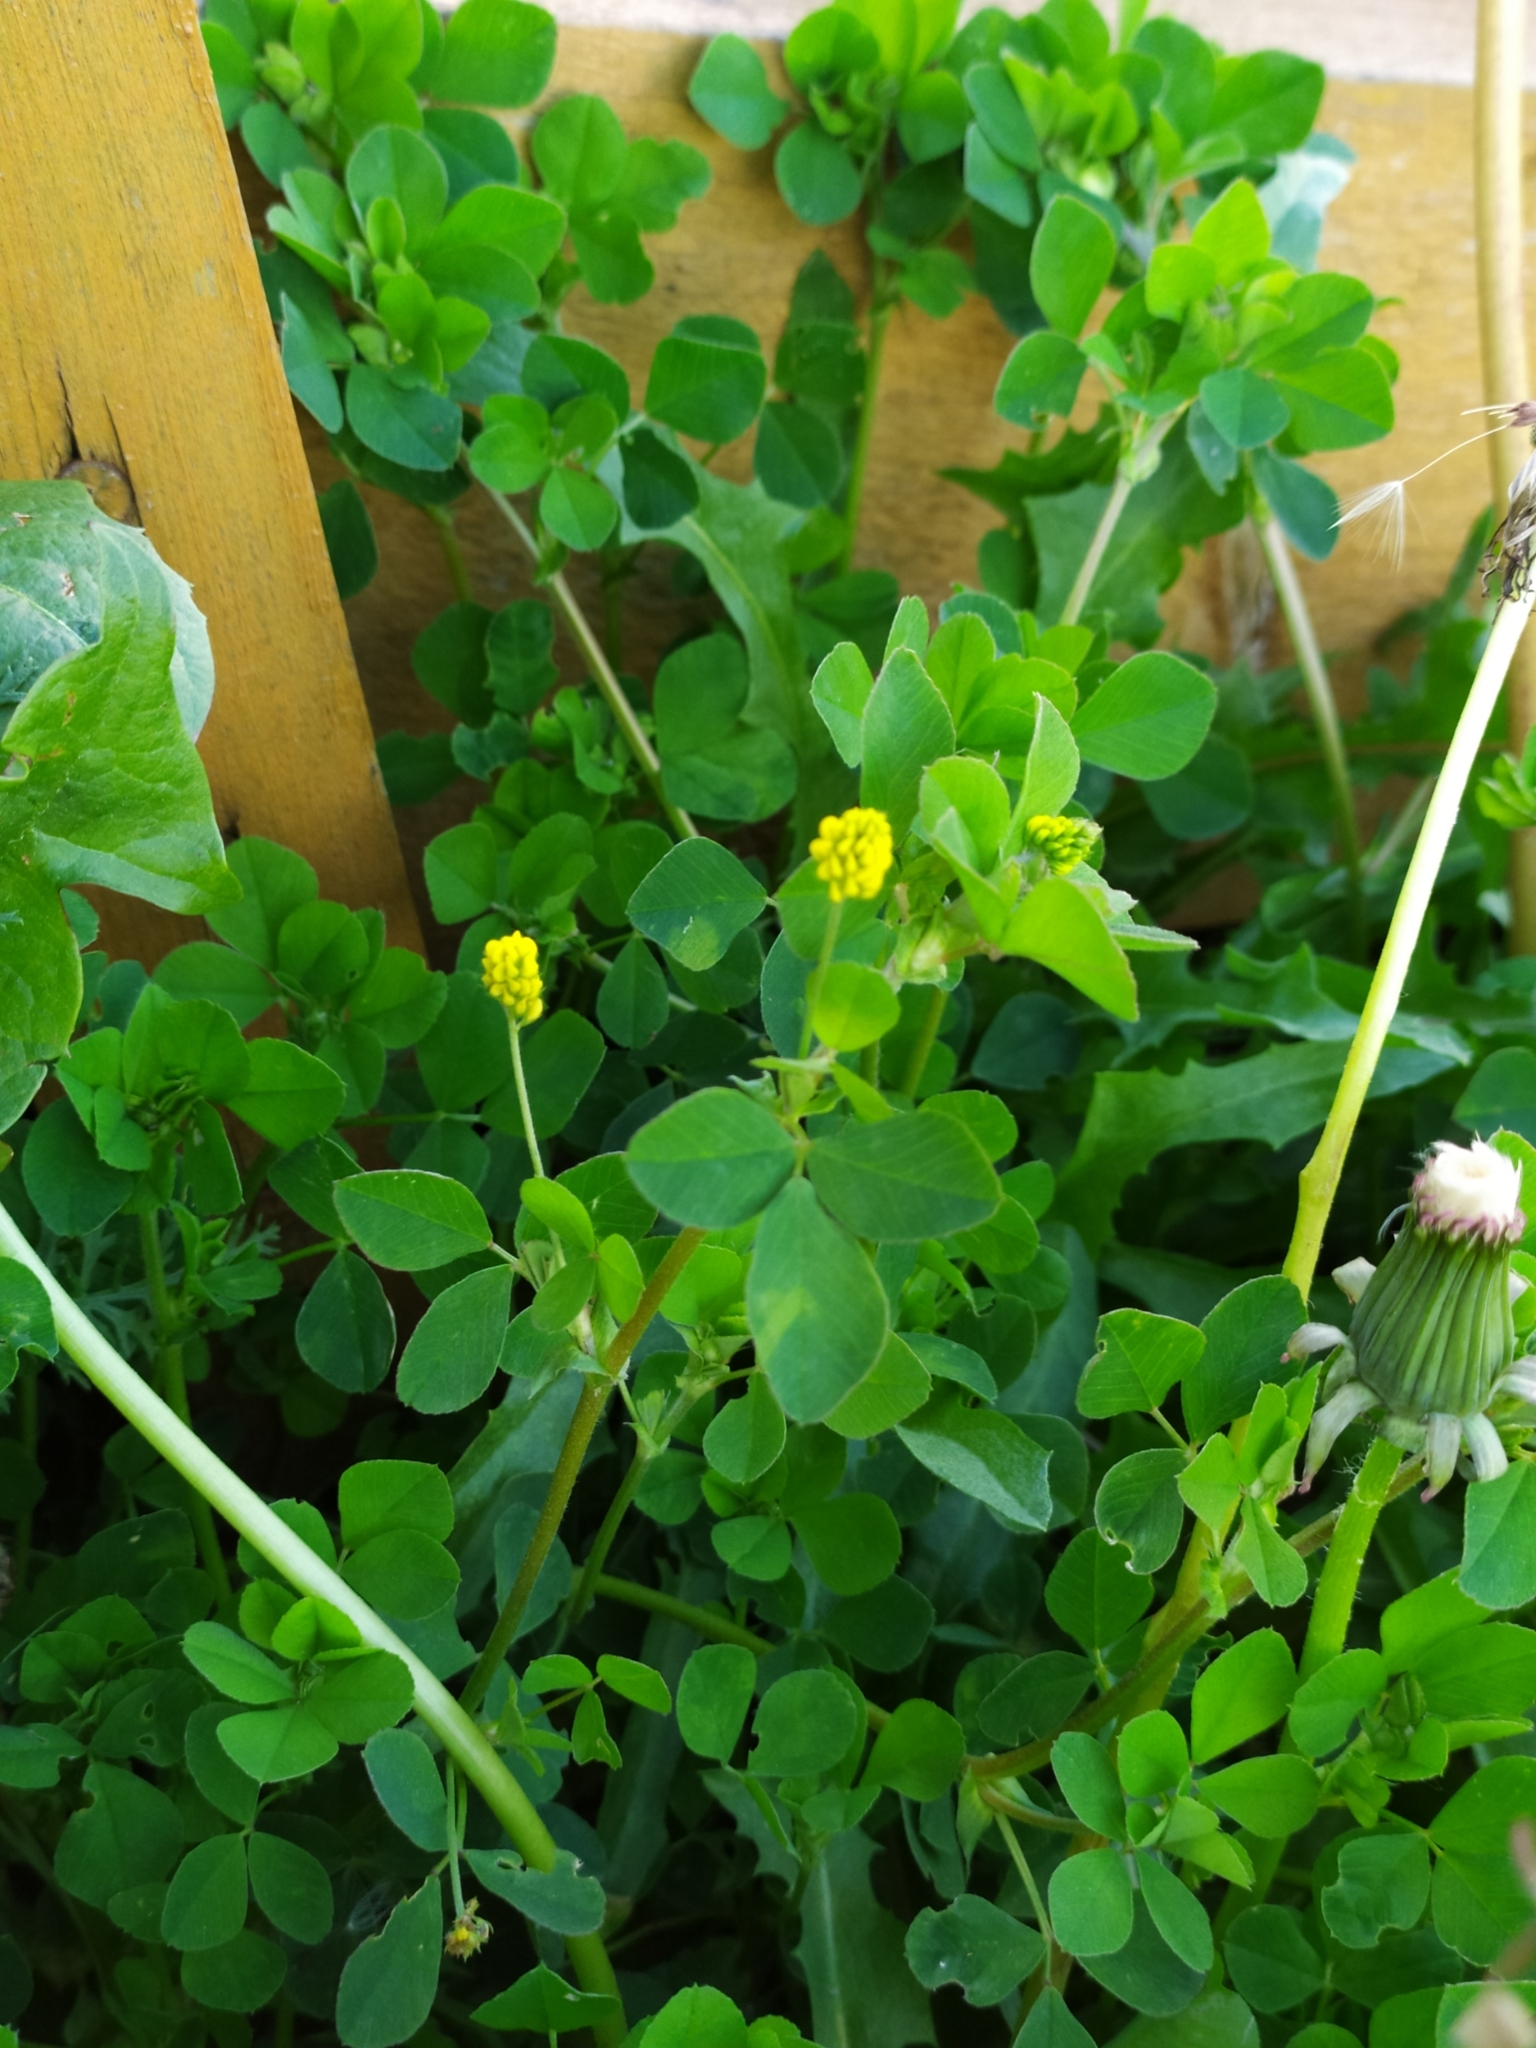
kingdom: Plantae
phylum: Tracheophyta
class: Magnoliopsida
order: Fabales
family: Fabaceae
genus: Medicago
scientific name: Medicago lupulina
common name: Black medick
